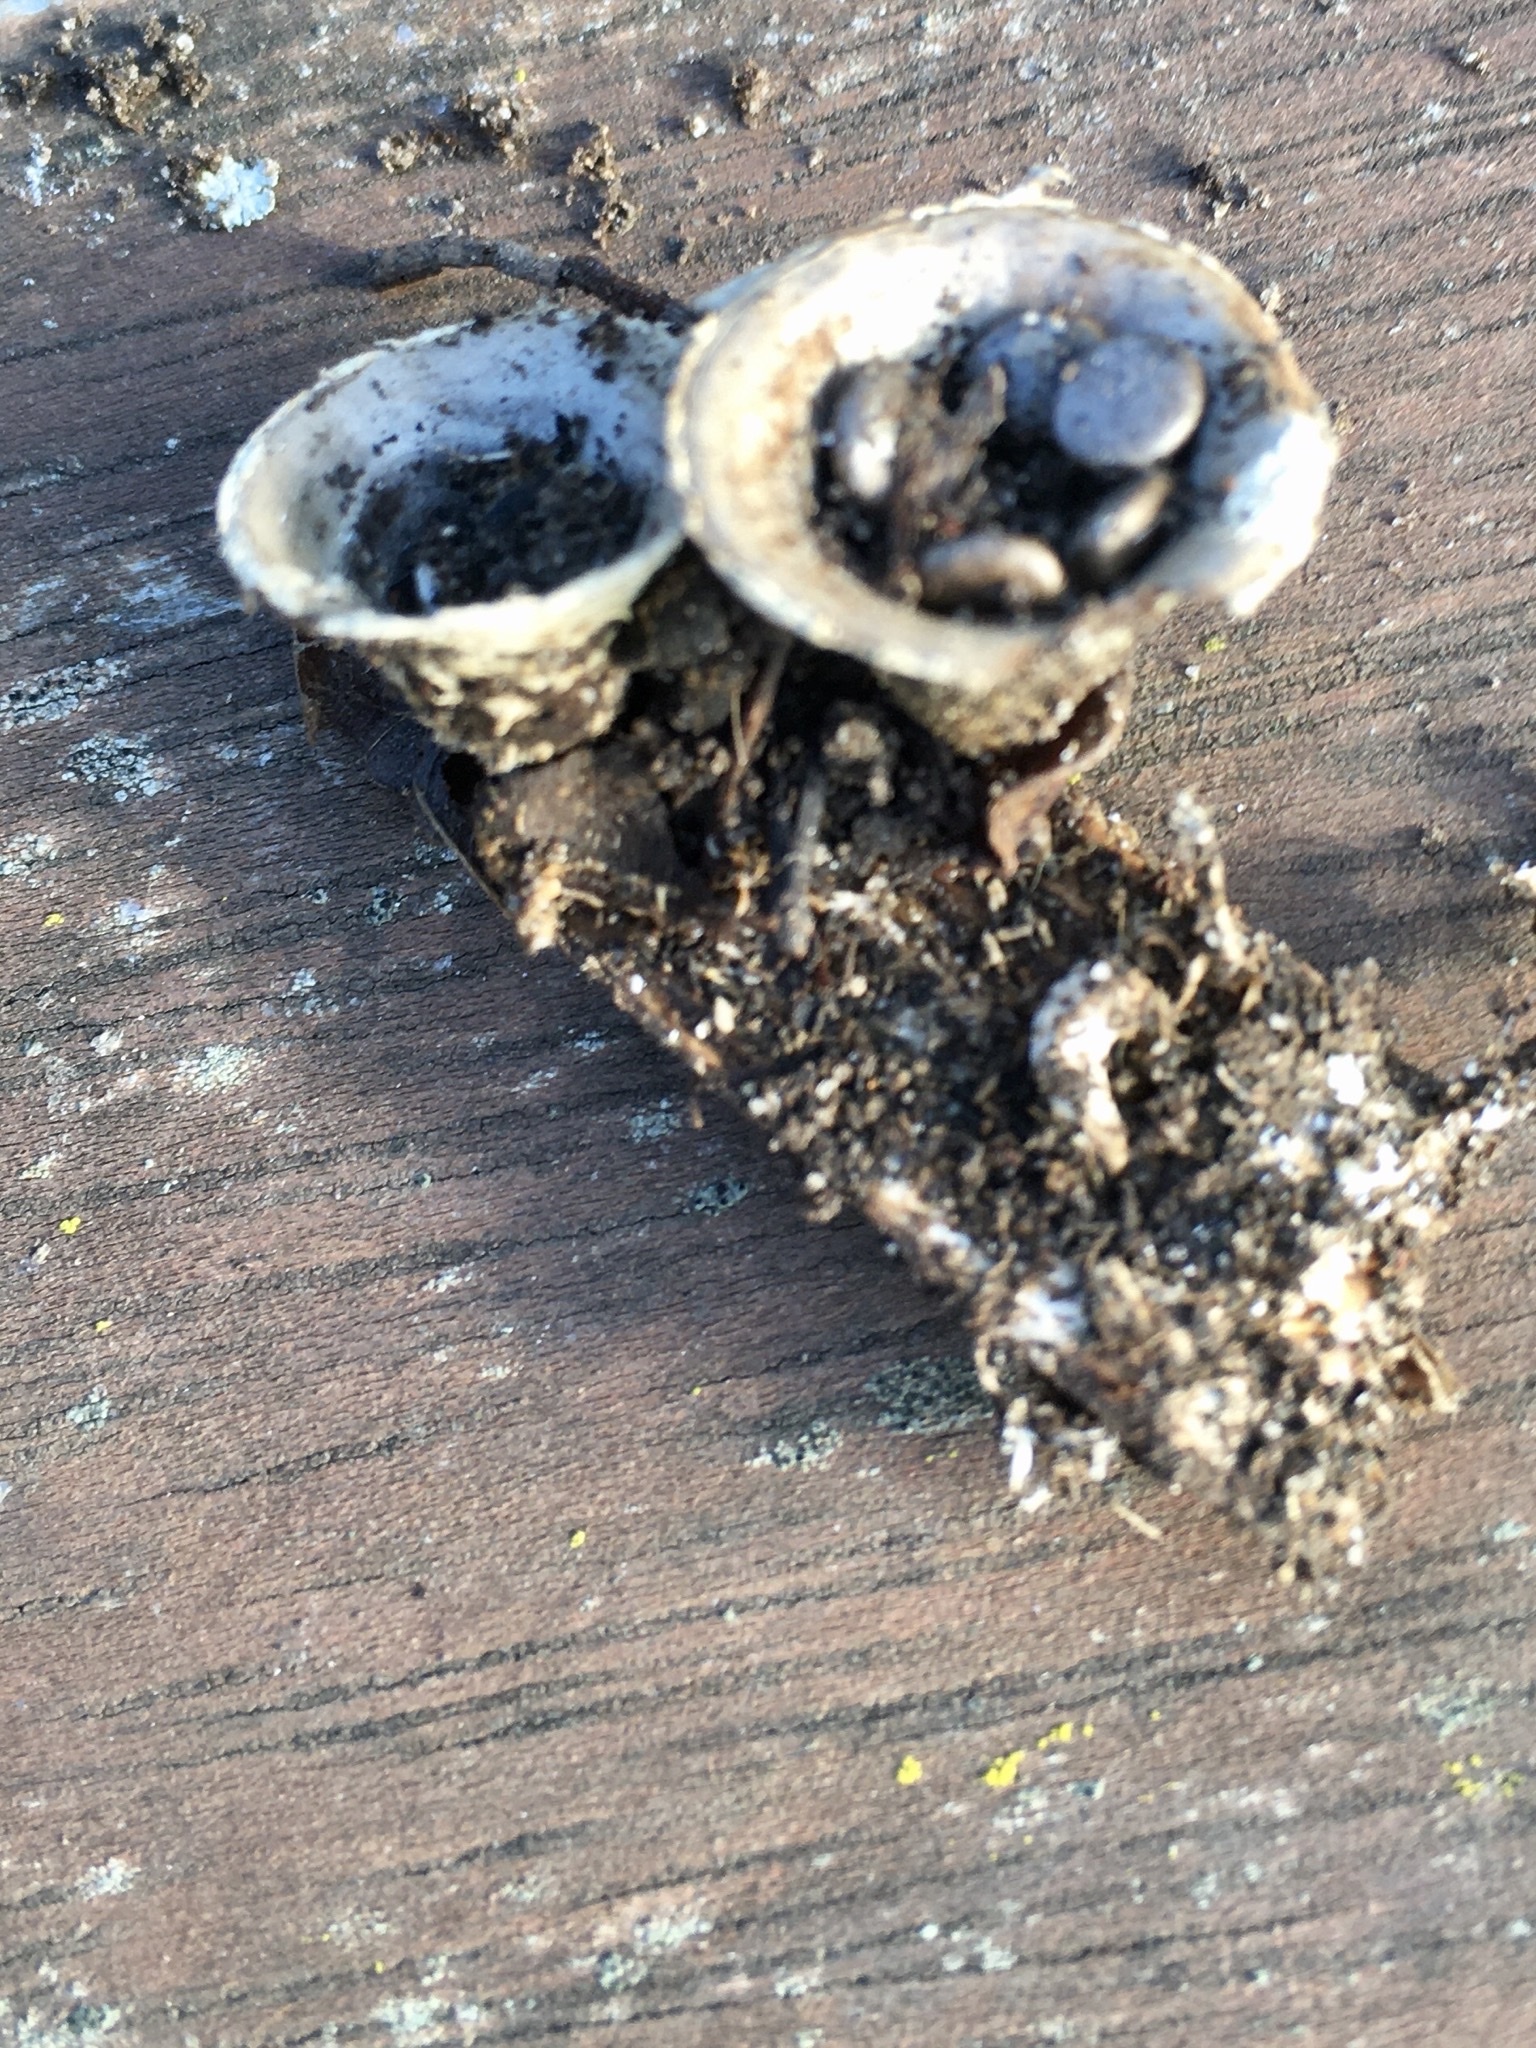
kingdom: Fungi
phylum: Basidiomycota
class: Agaricomycetes
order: Agaricales
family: Agaricaceae
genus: Cyathus
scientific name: Cyathus olla
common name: Field bird's nest
